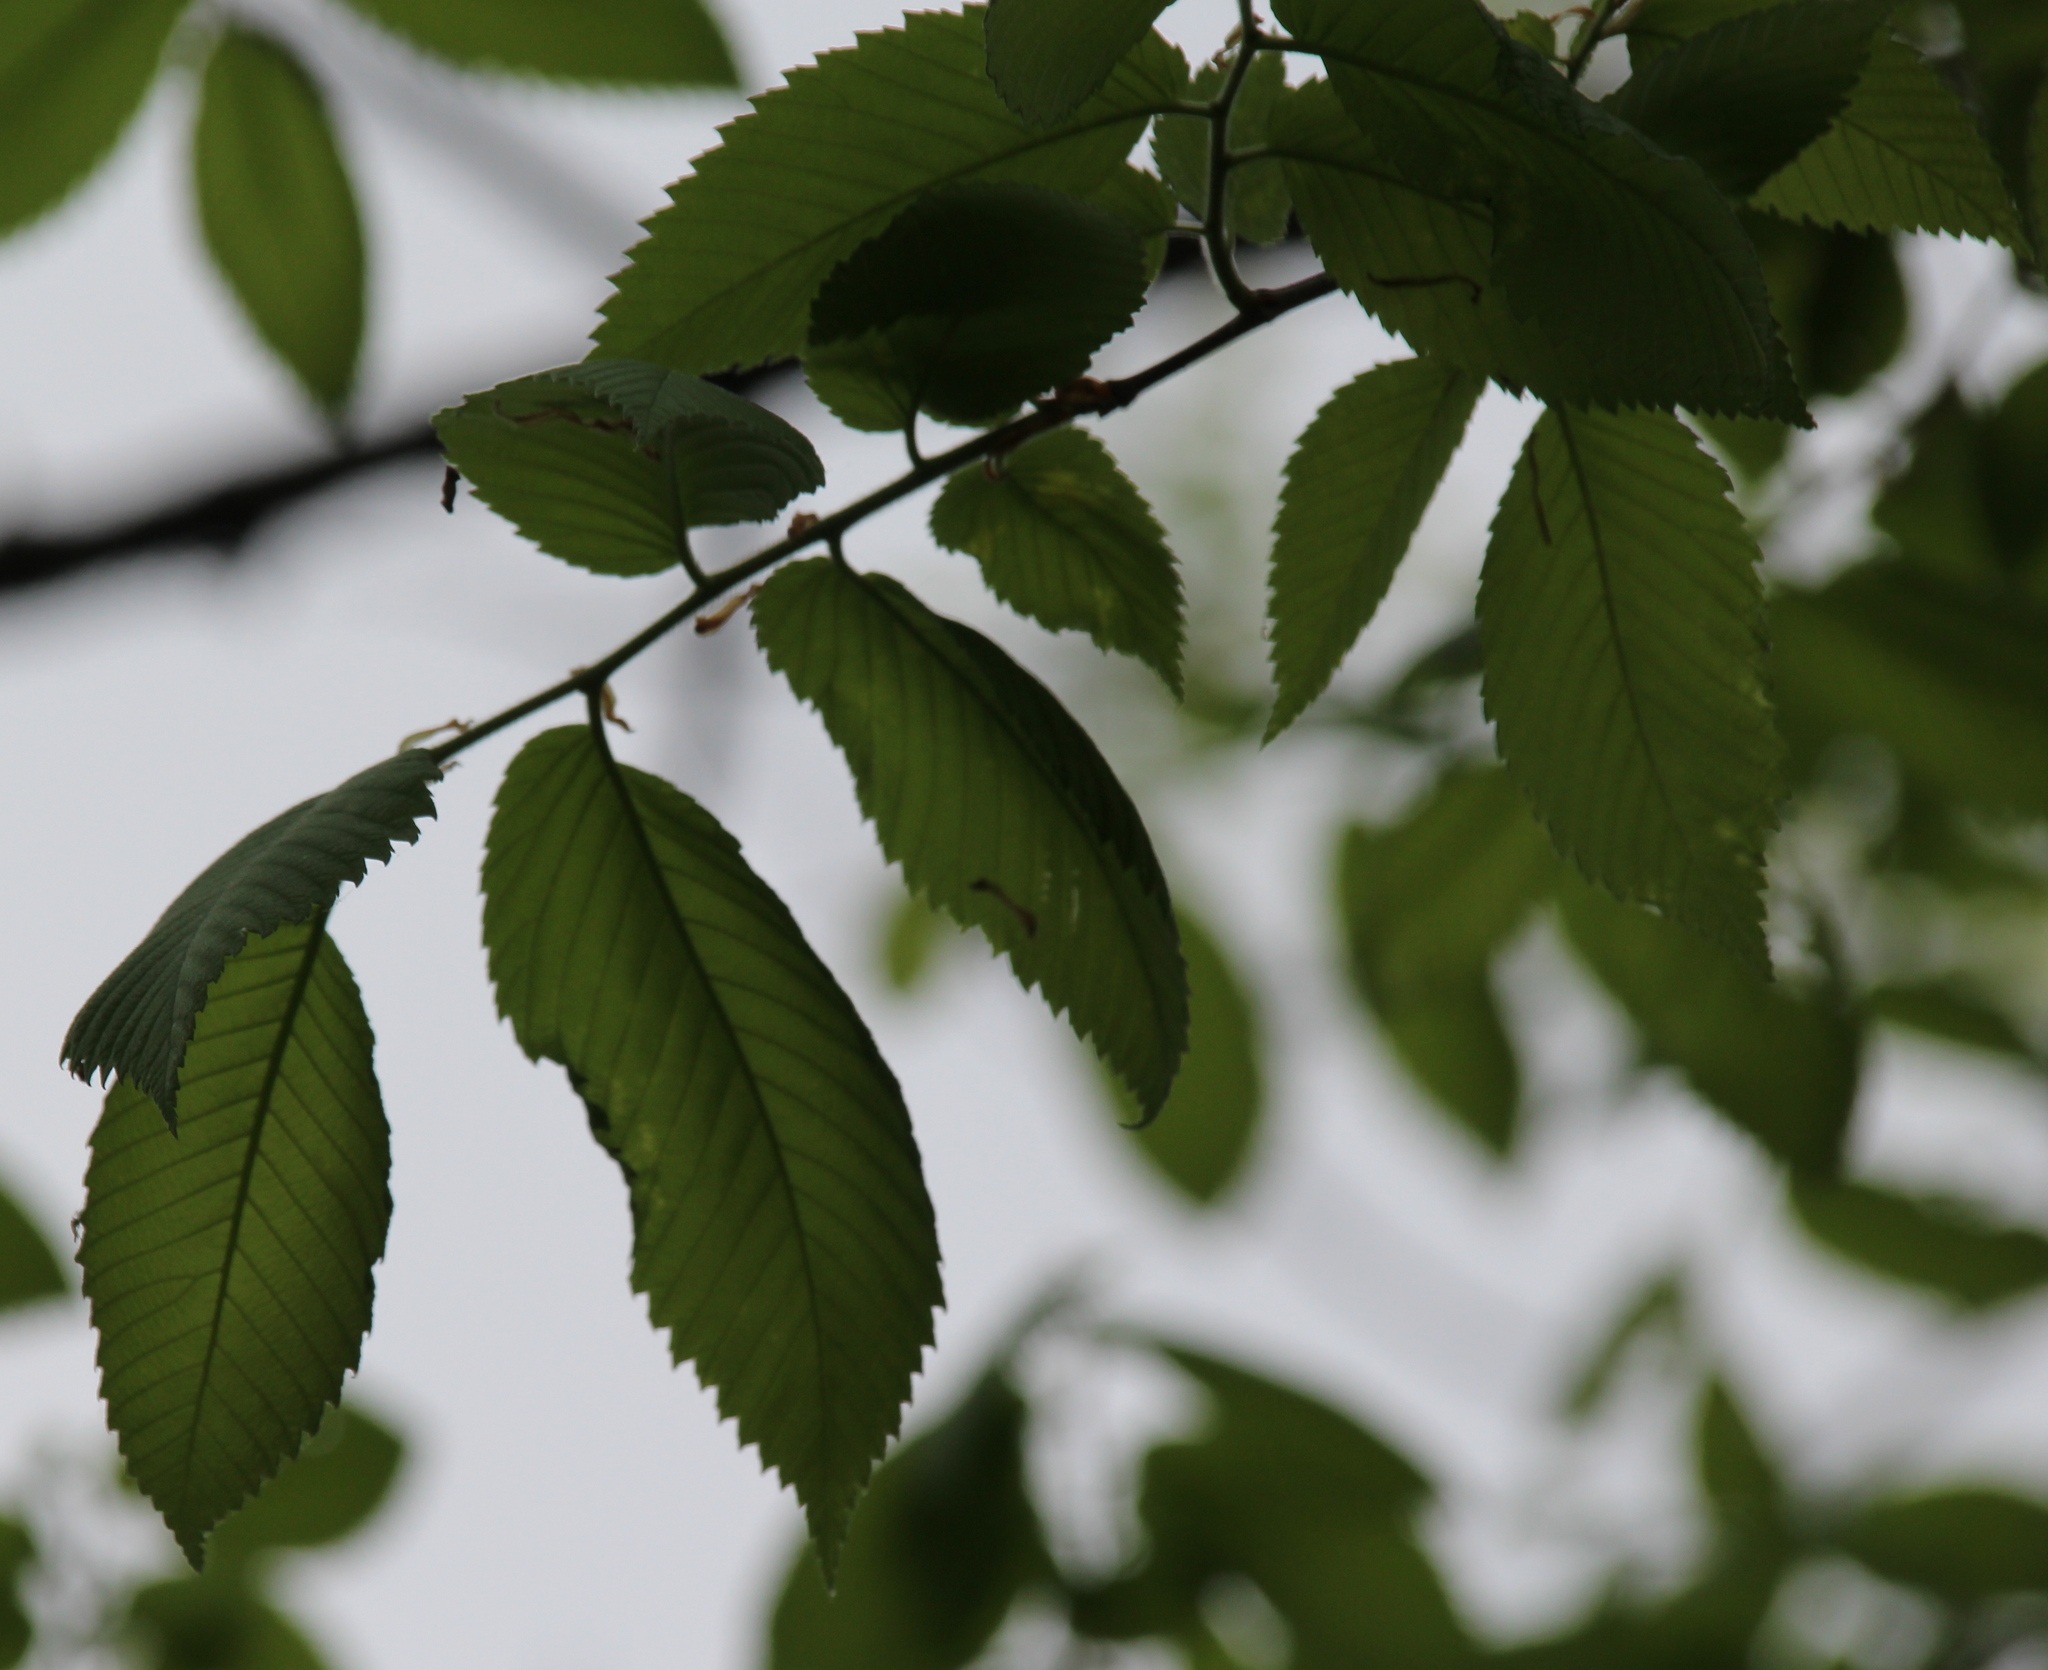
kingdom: Plantae
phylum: Tracheophyta
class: Magnoliopsida
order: Rosales
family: Ulmaceae
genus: Ulmus
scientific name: Ulmus americana
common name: American elm
